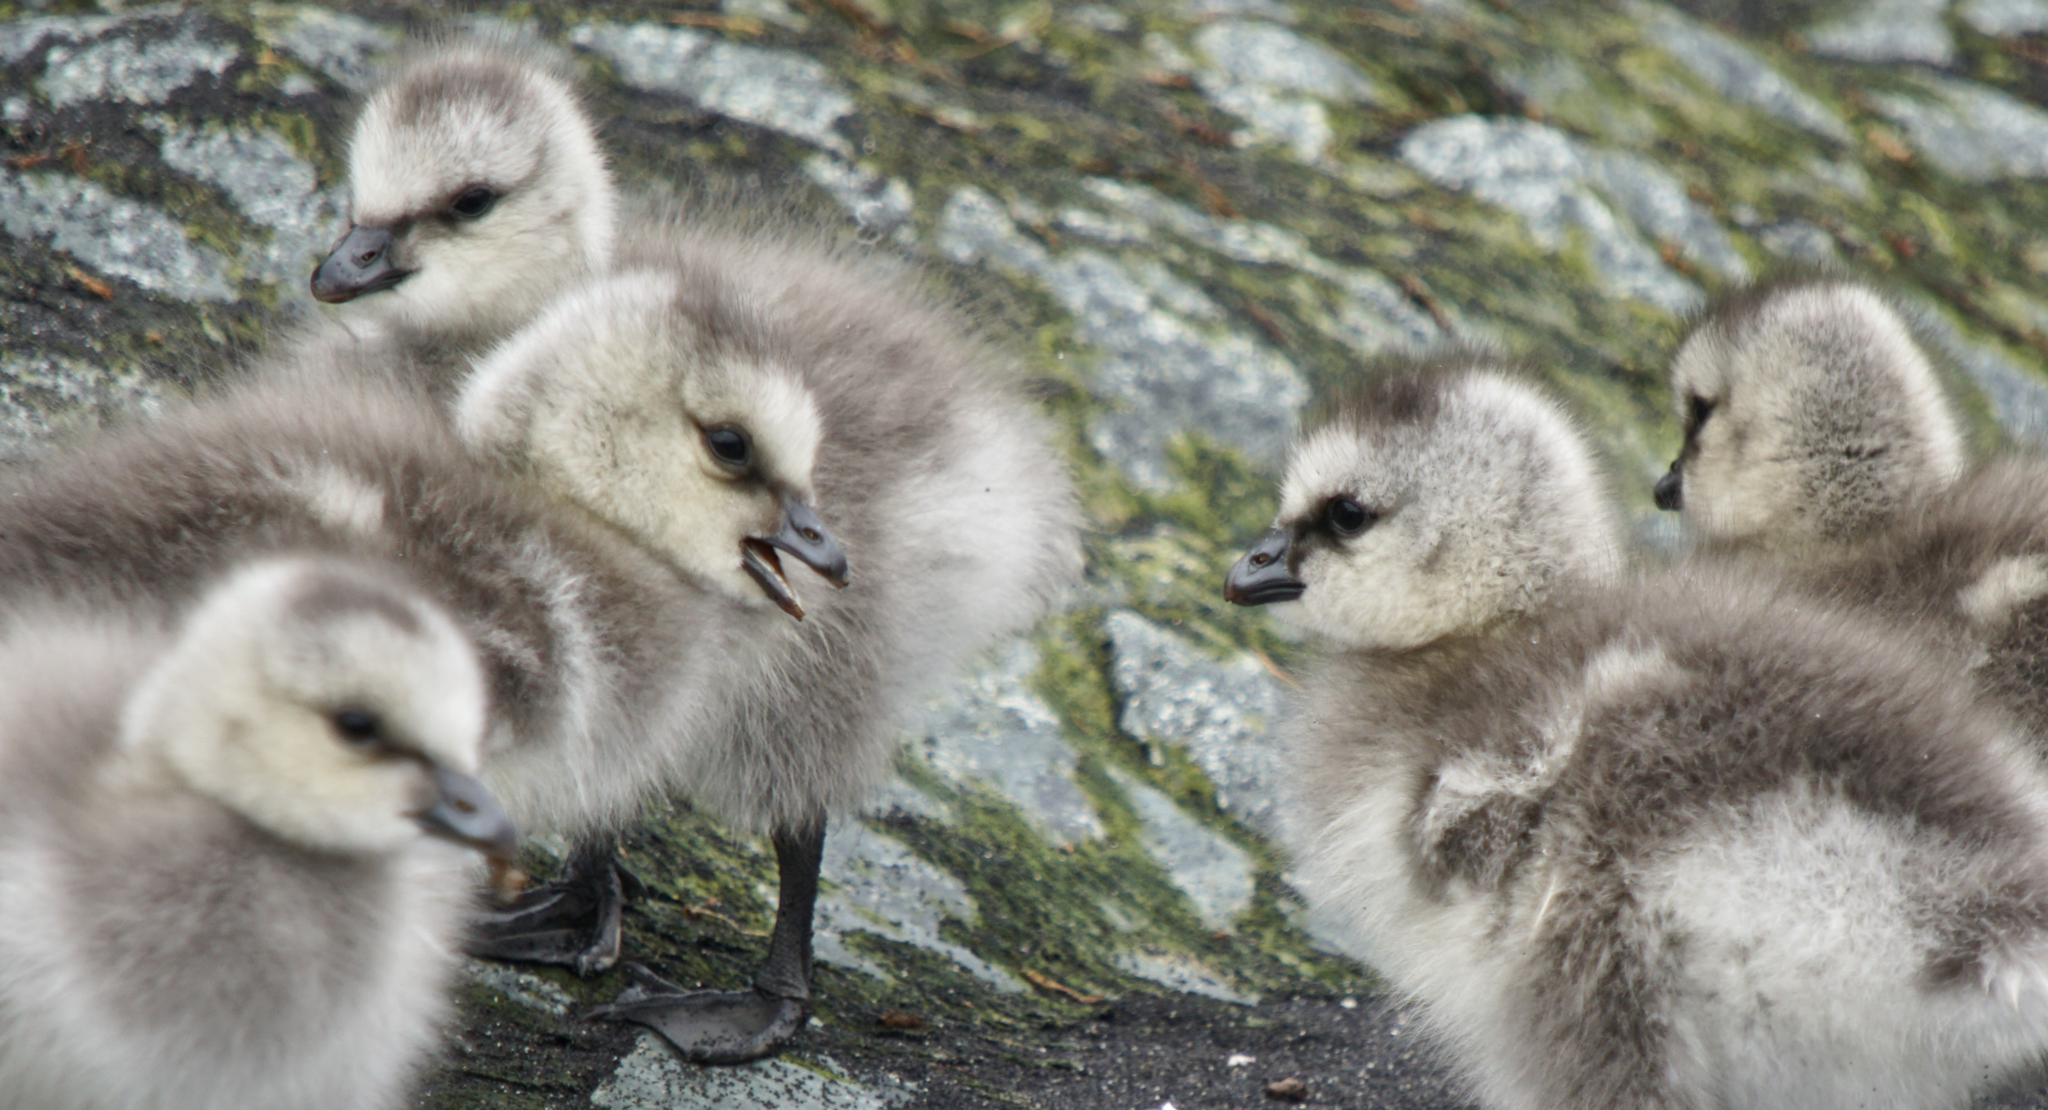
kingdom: Animalia
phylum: Chordata
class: Aves
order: Anseriformes
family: Anatidae
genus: Branta
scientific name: Branta leucopsis
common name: Barnacle goose
